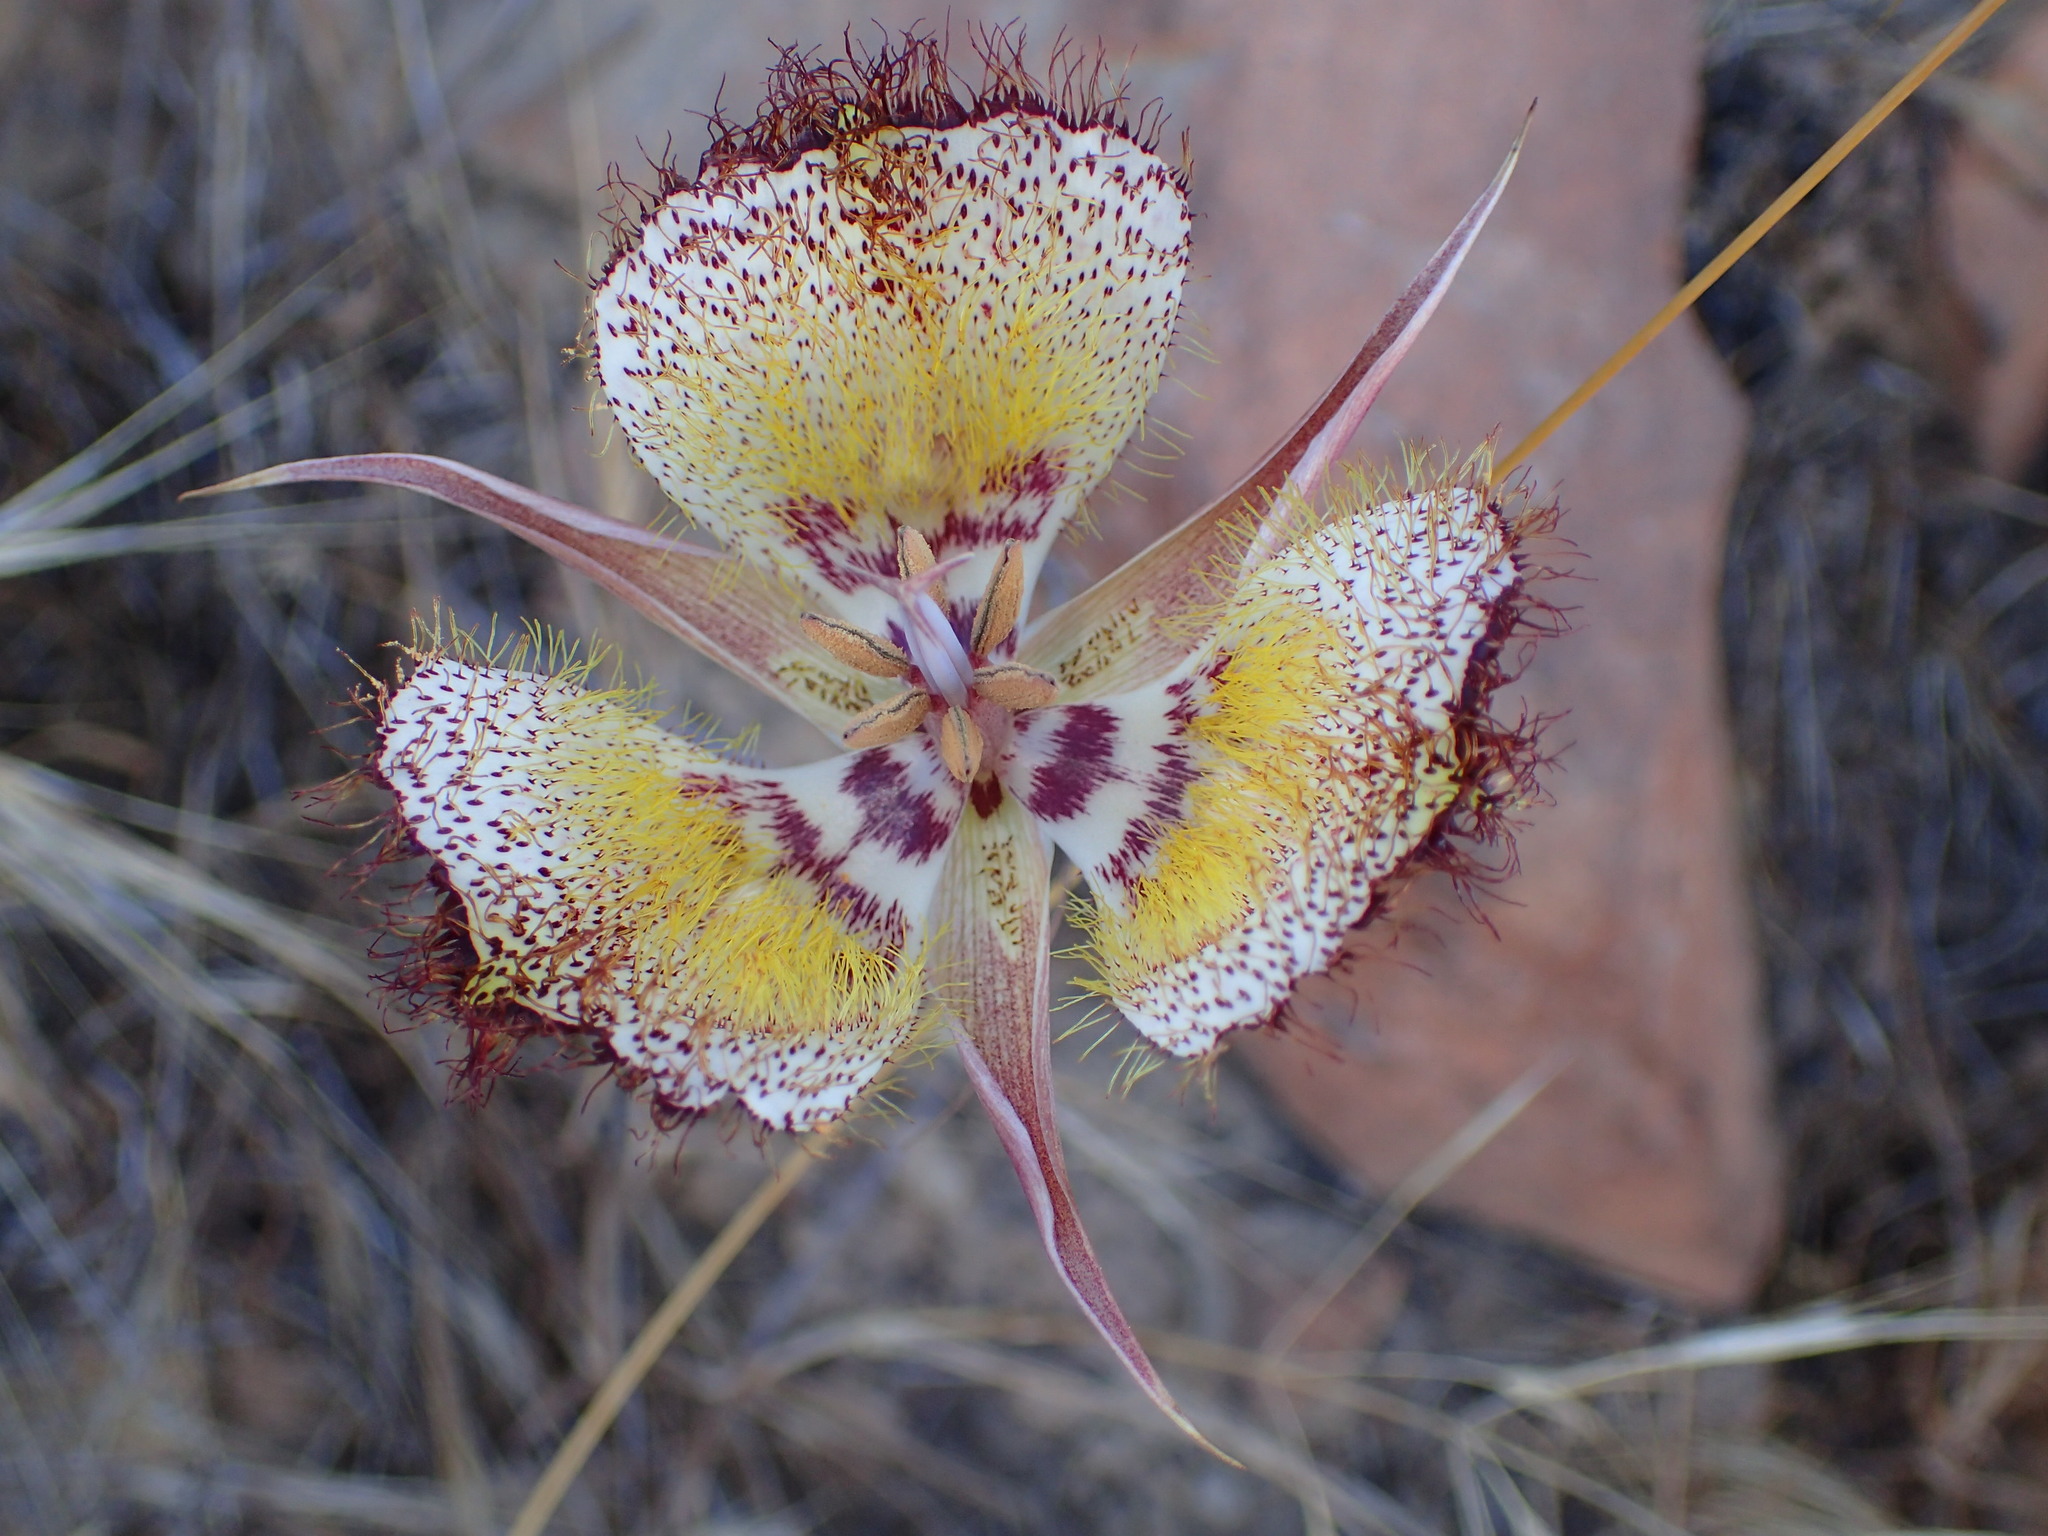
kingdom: Plantae
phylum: Tracheophyta
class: Liliopsida
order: Liliales
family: Liliaceae
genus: Calochortus
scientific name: Calochortus fimbriatus
